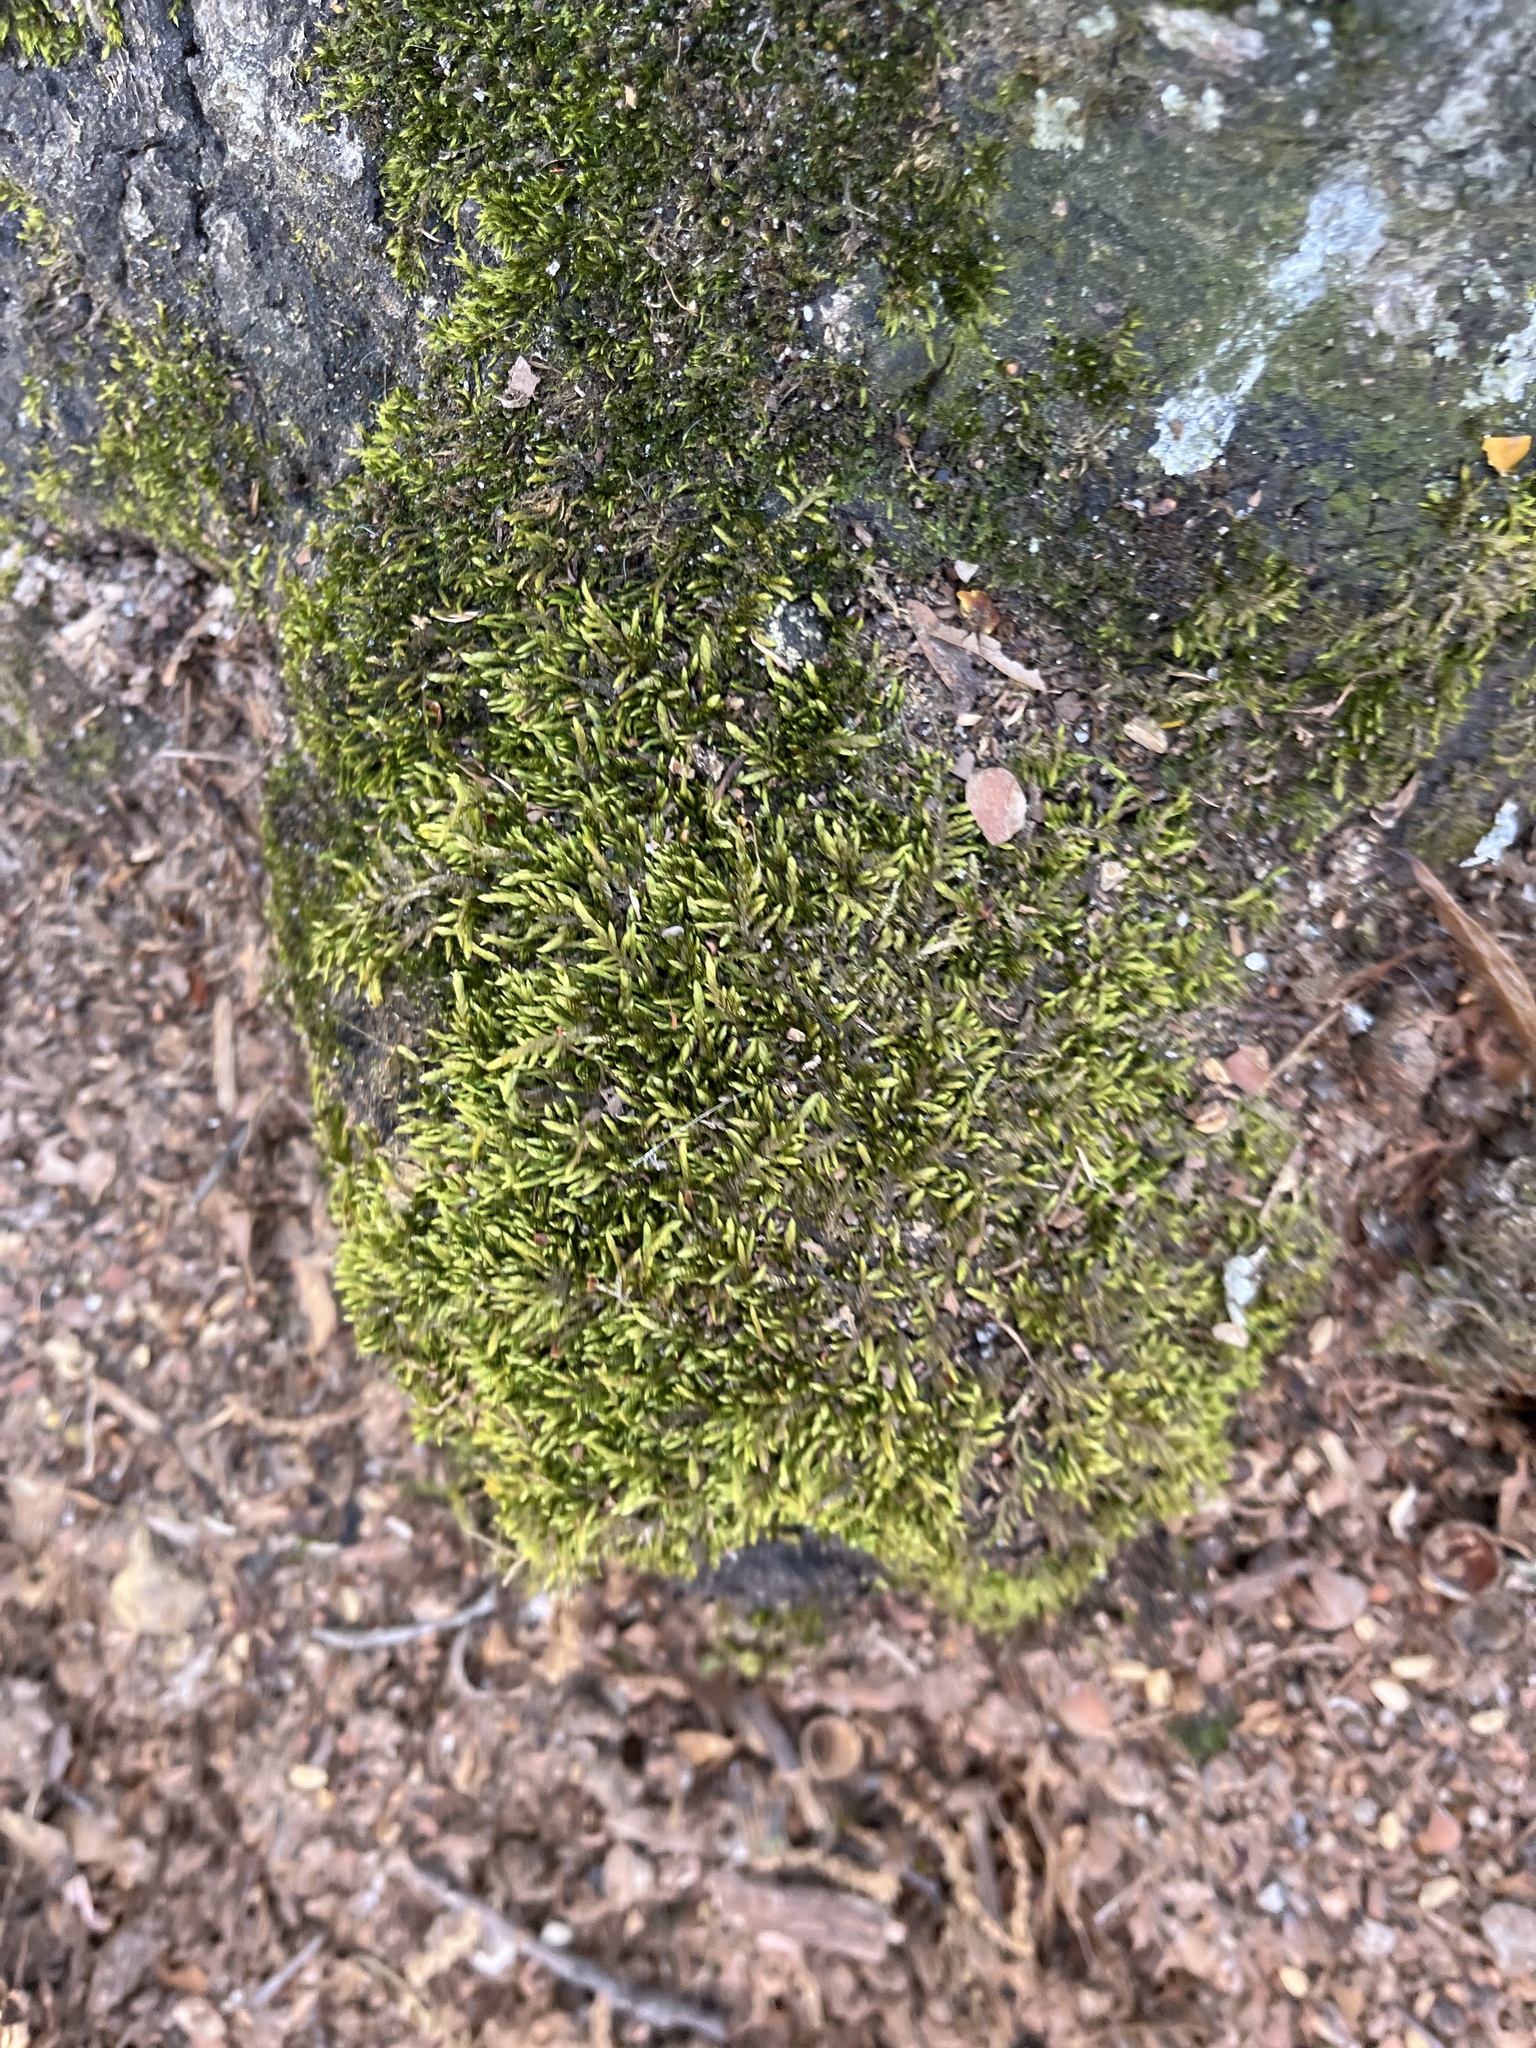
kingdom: Plantae
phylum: Bryophyta
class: Bryopsida
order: Hypnales
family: Entodontaceae
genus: Entodon
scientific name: Entodon seductrix
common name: Round-stemmed entodon moss
